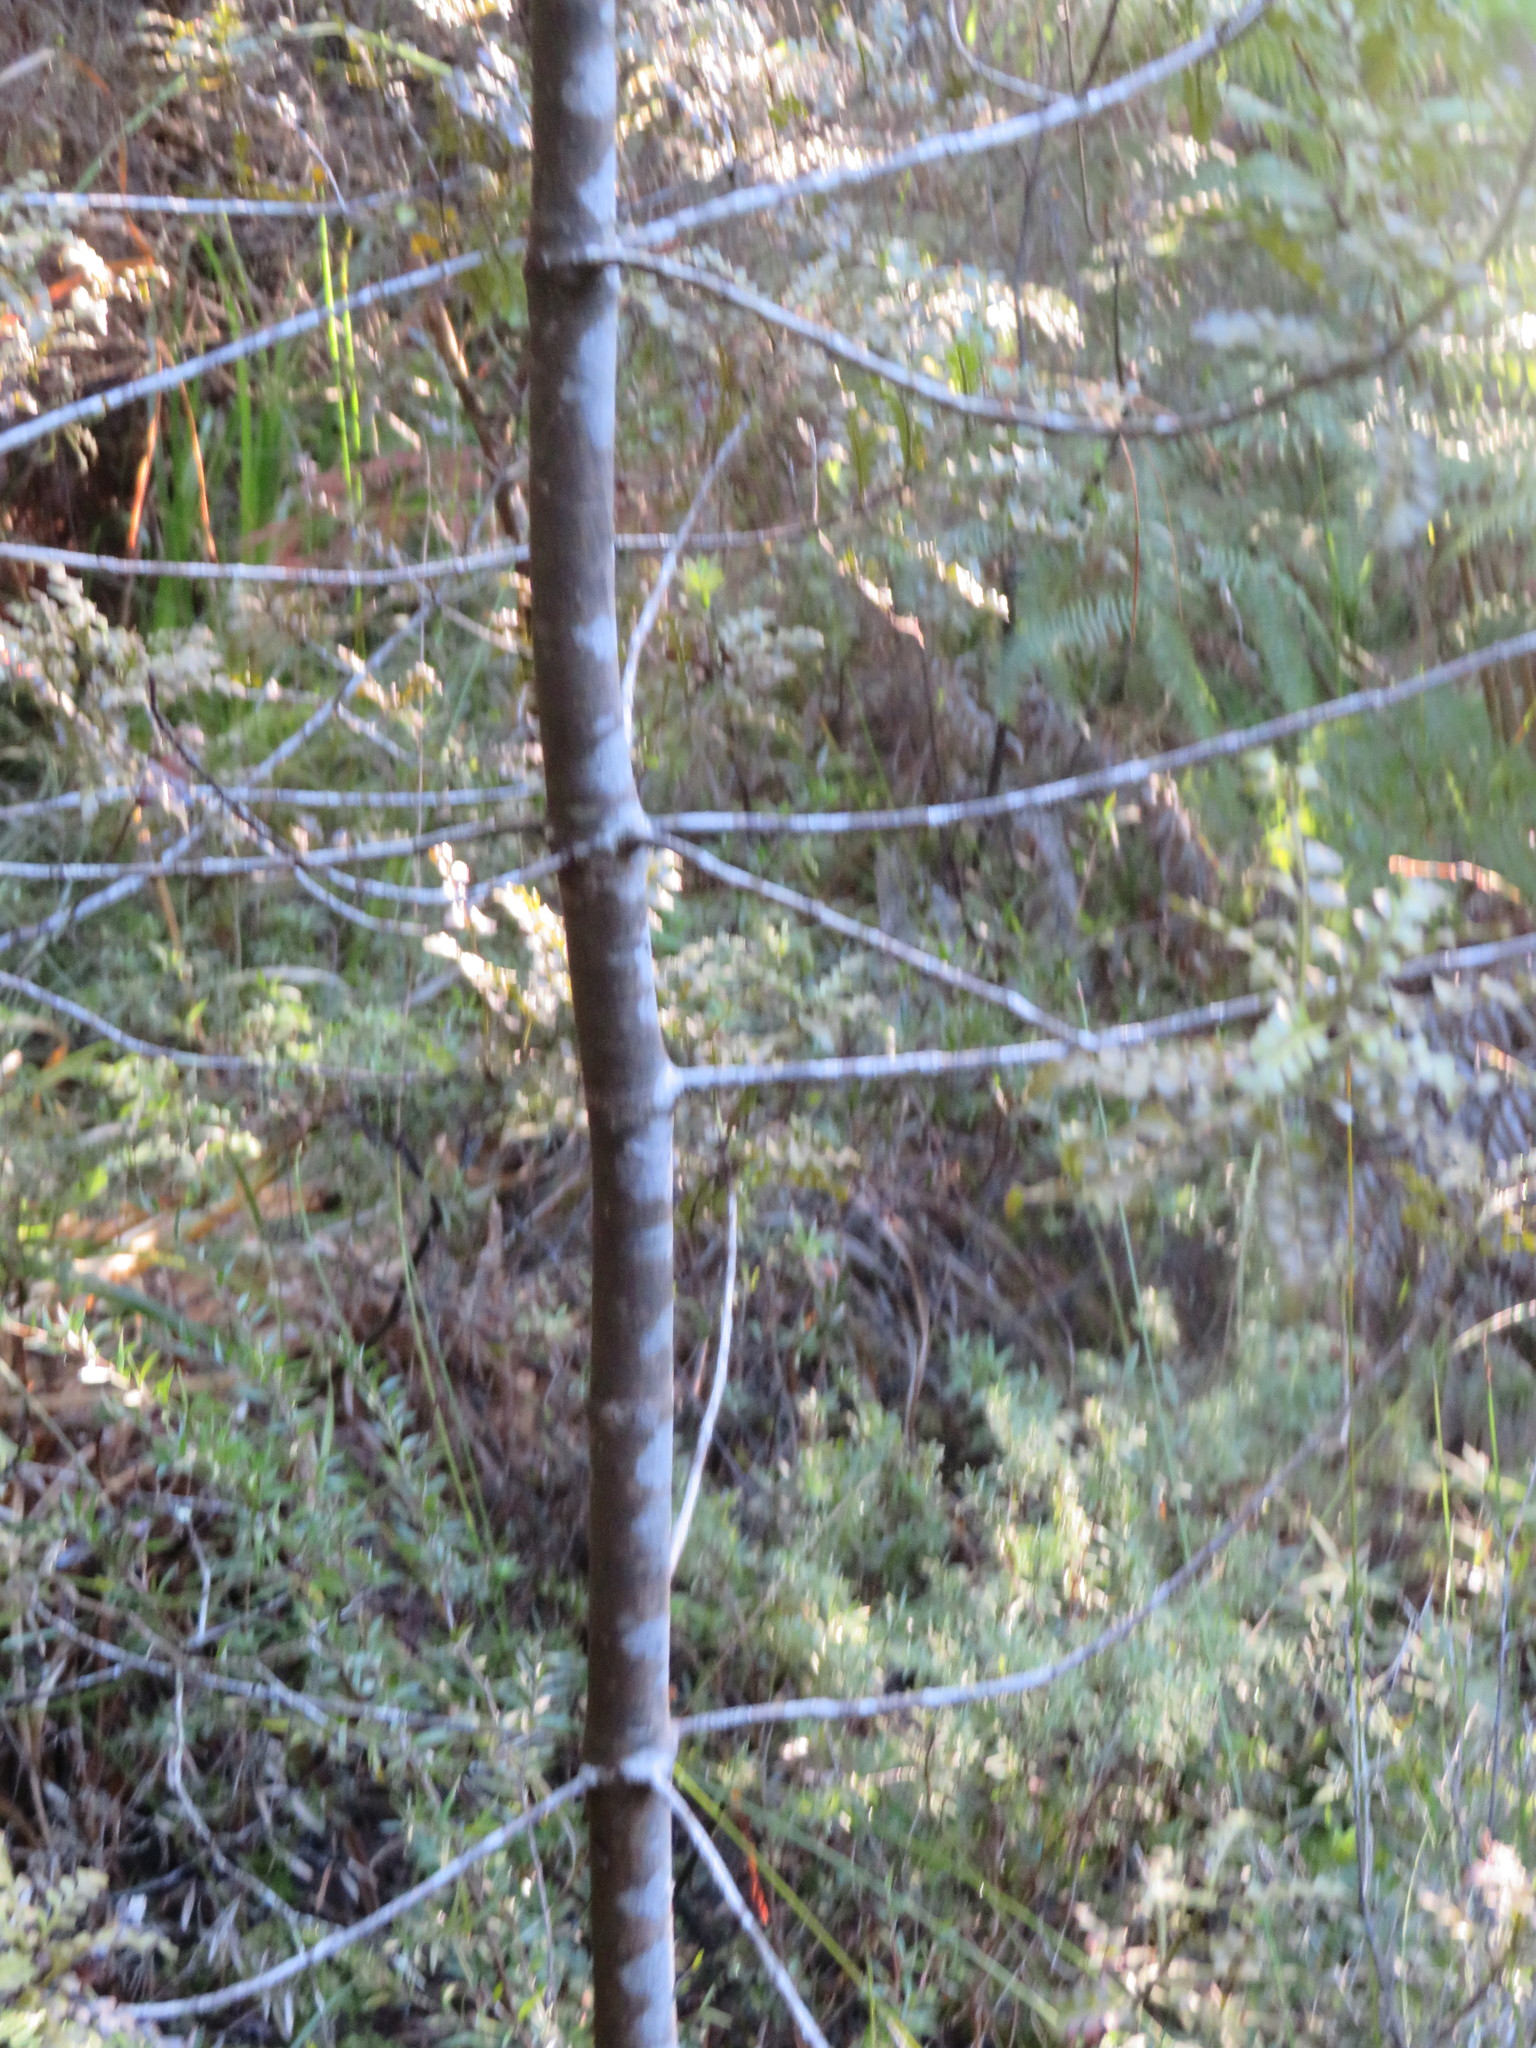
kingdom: Plantae
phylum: Tracheophyta
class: Pinopsida
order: Pinales
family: Phyllocladaceae
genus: Phyllocladus
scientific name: Phyllocladus trichomanoides
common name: Celery pine
